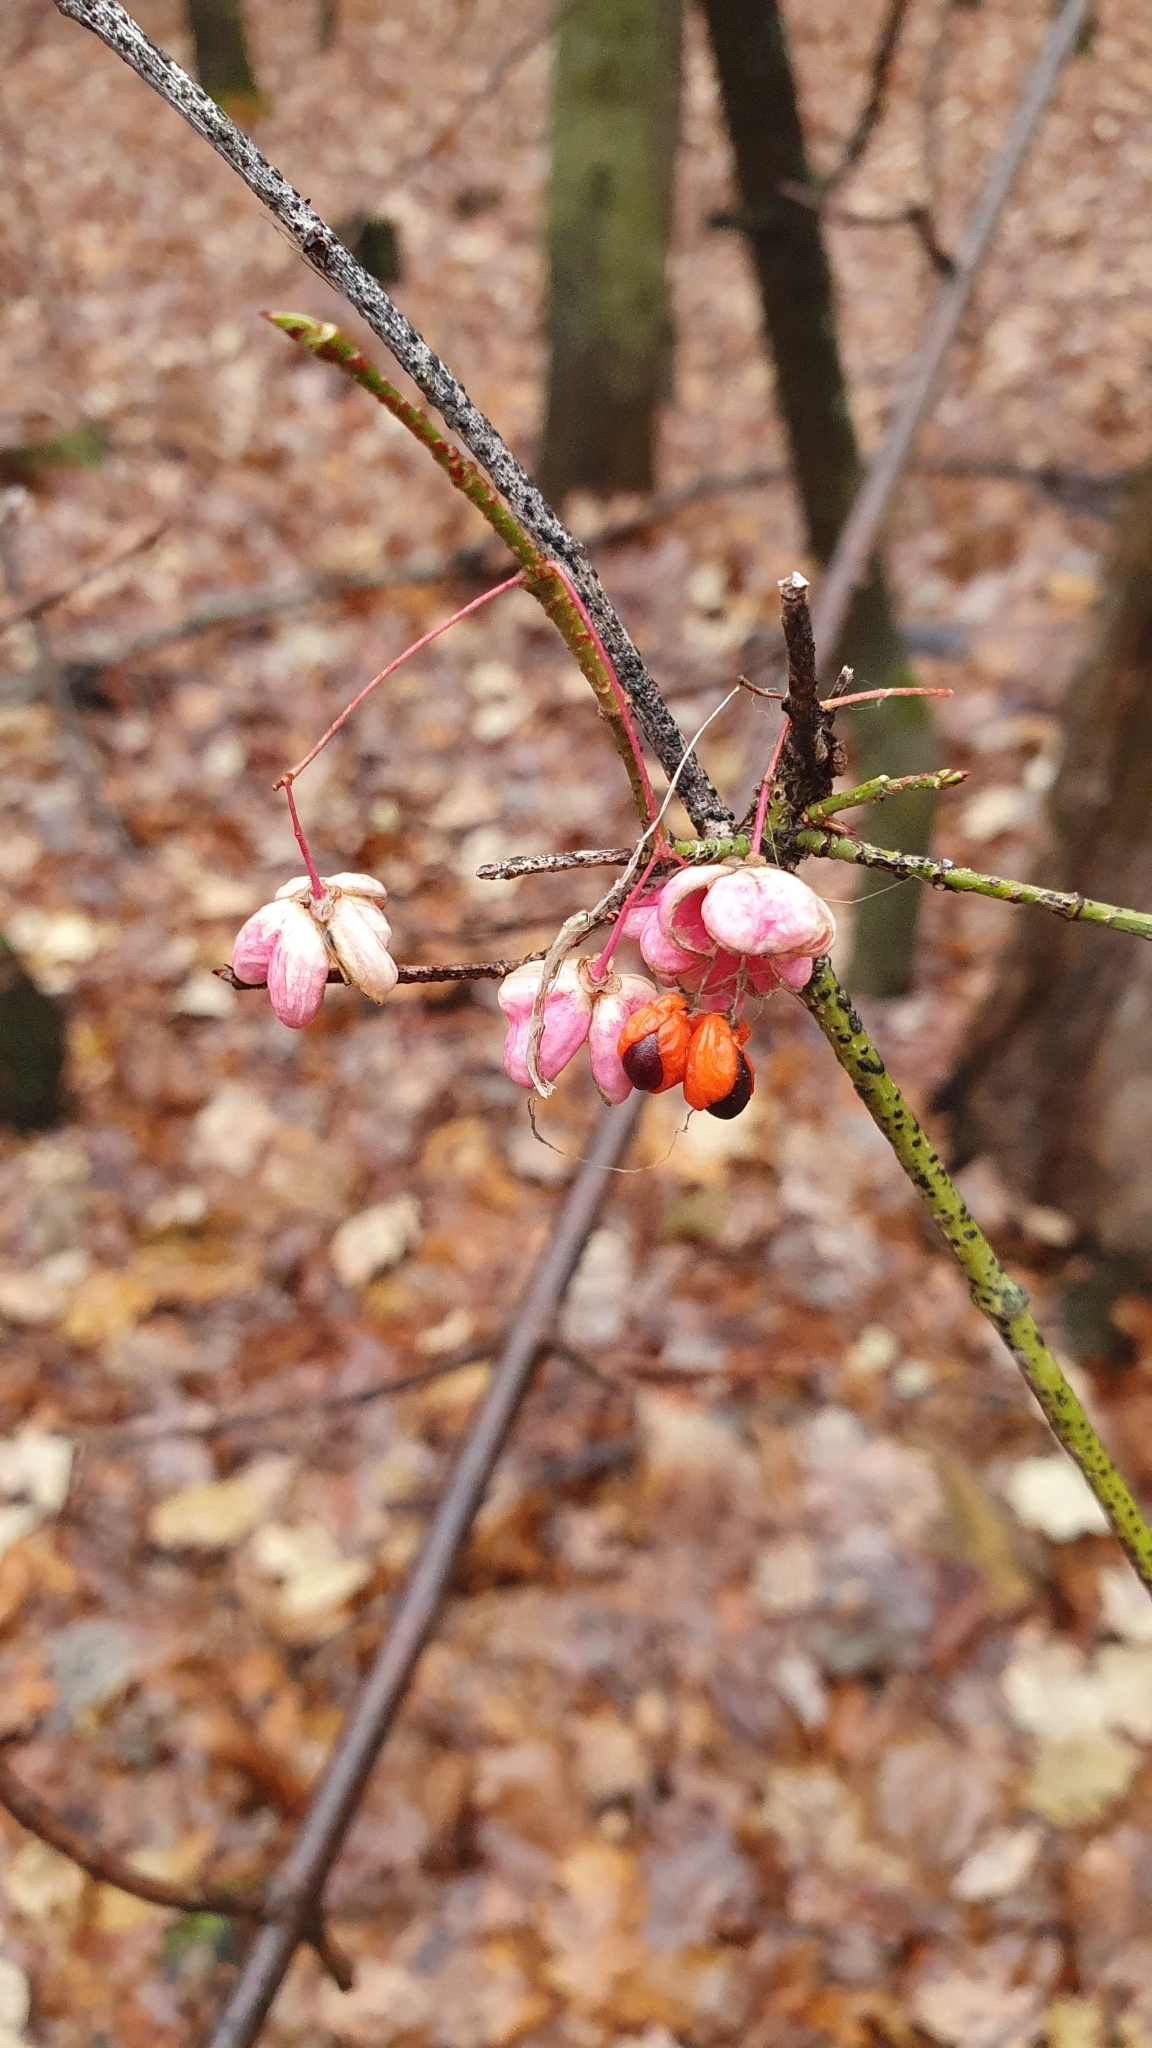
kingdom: Plantae
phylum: Tracheophyta
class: Magnoliopsida
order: Celastrales
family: Celastraceae
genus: Euonymus
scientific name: Euonymus verrucosus
